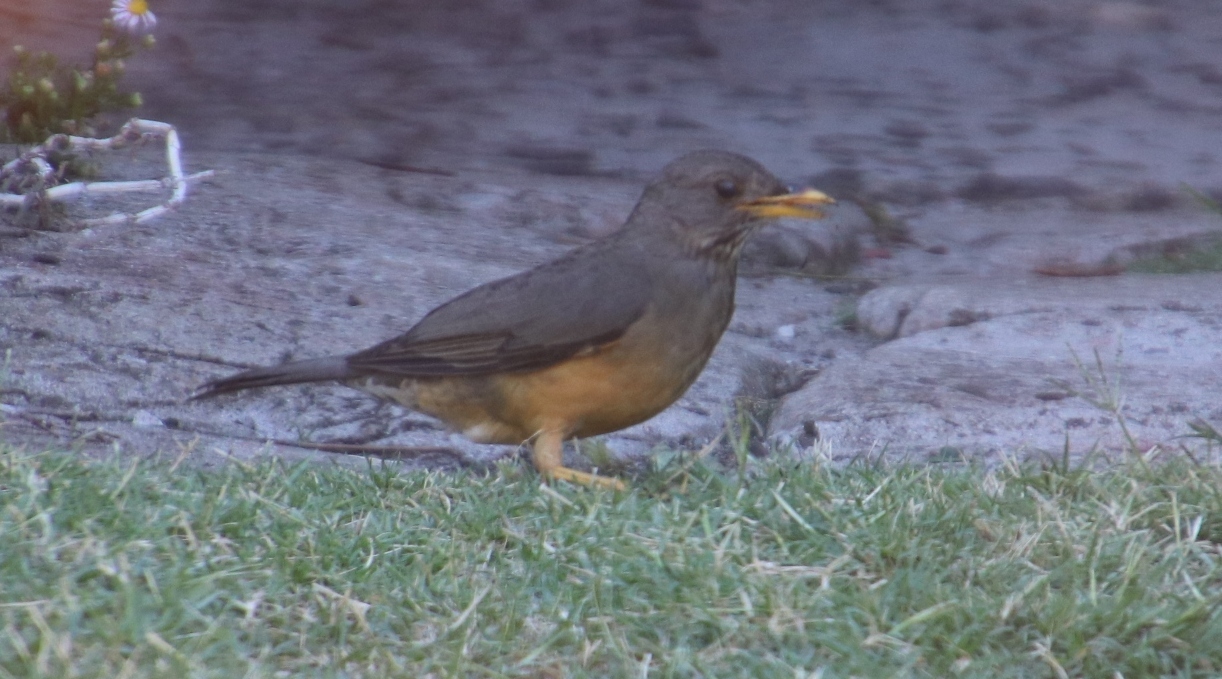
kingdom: Animalia
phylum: Chordata
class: Aves
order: Passeriformes
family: Turdidae
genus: Turdus
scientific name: Turdus olivaceus
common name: Olive thrush
